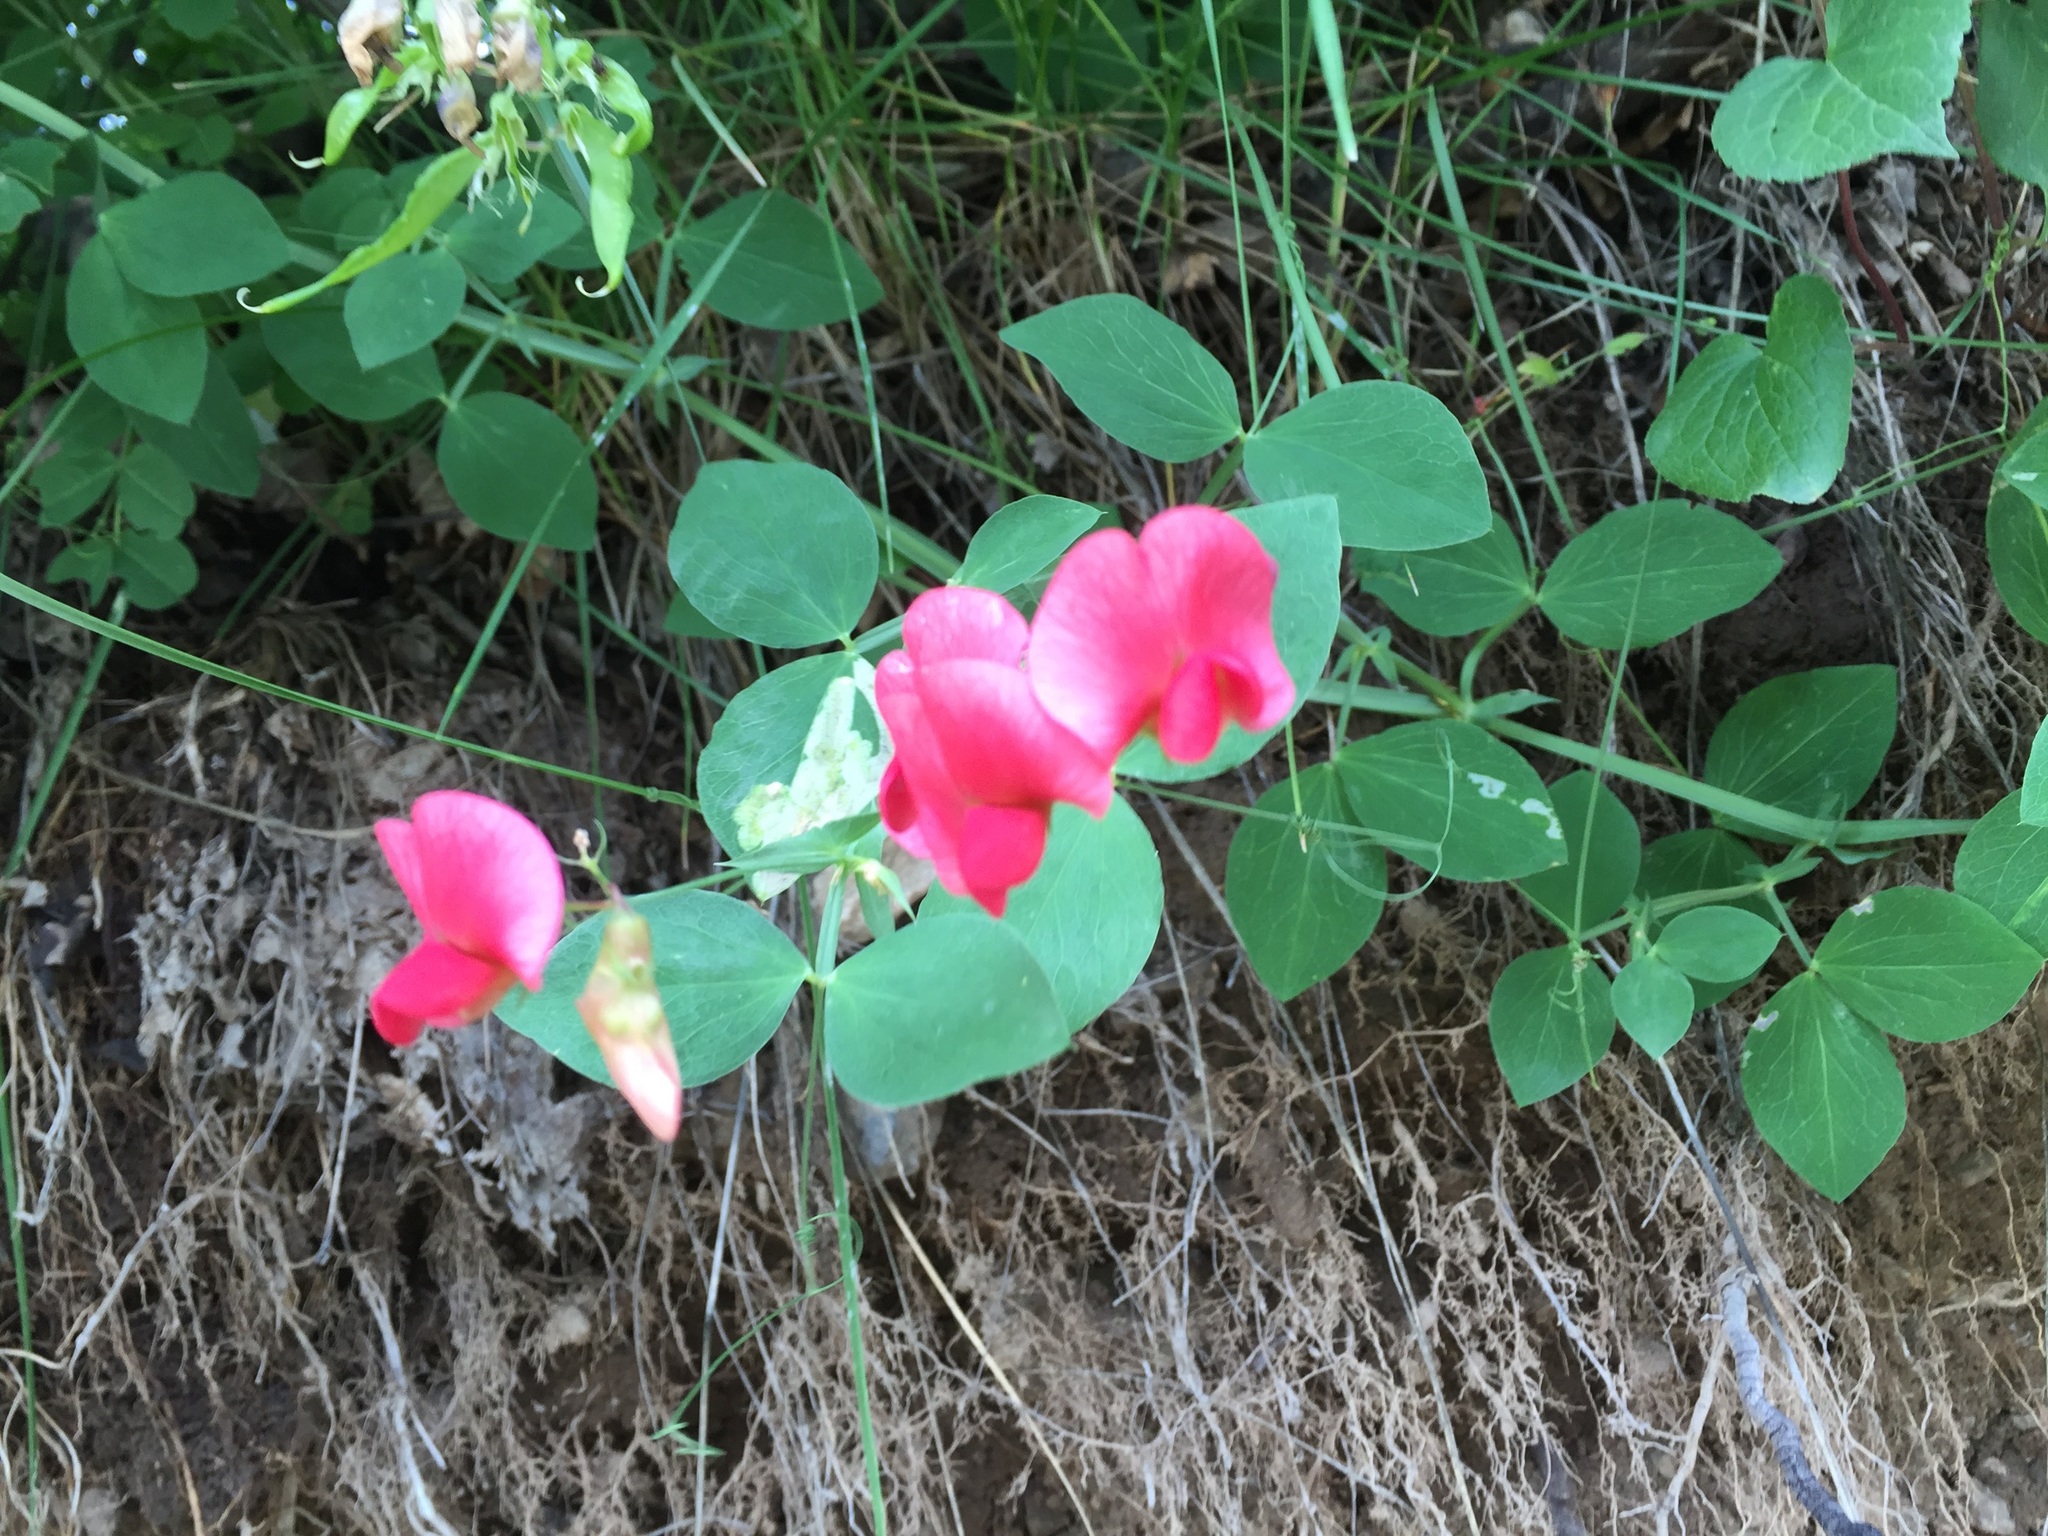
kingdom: Plantae
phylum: Tracheophyta
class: Magnoliopsida
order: Fabales
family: Fabaceae
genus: Lathyrus
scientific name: Lathyrus miniatus
